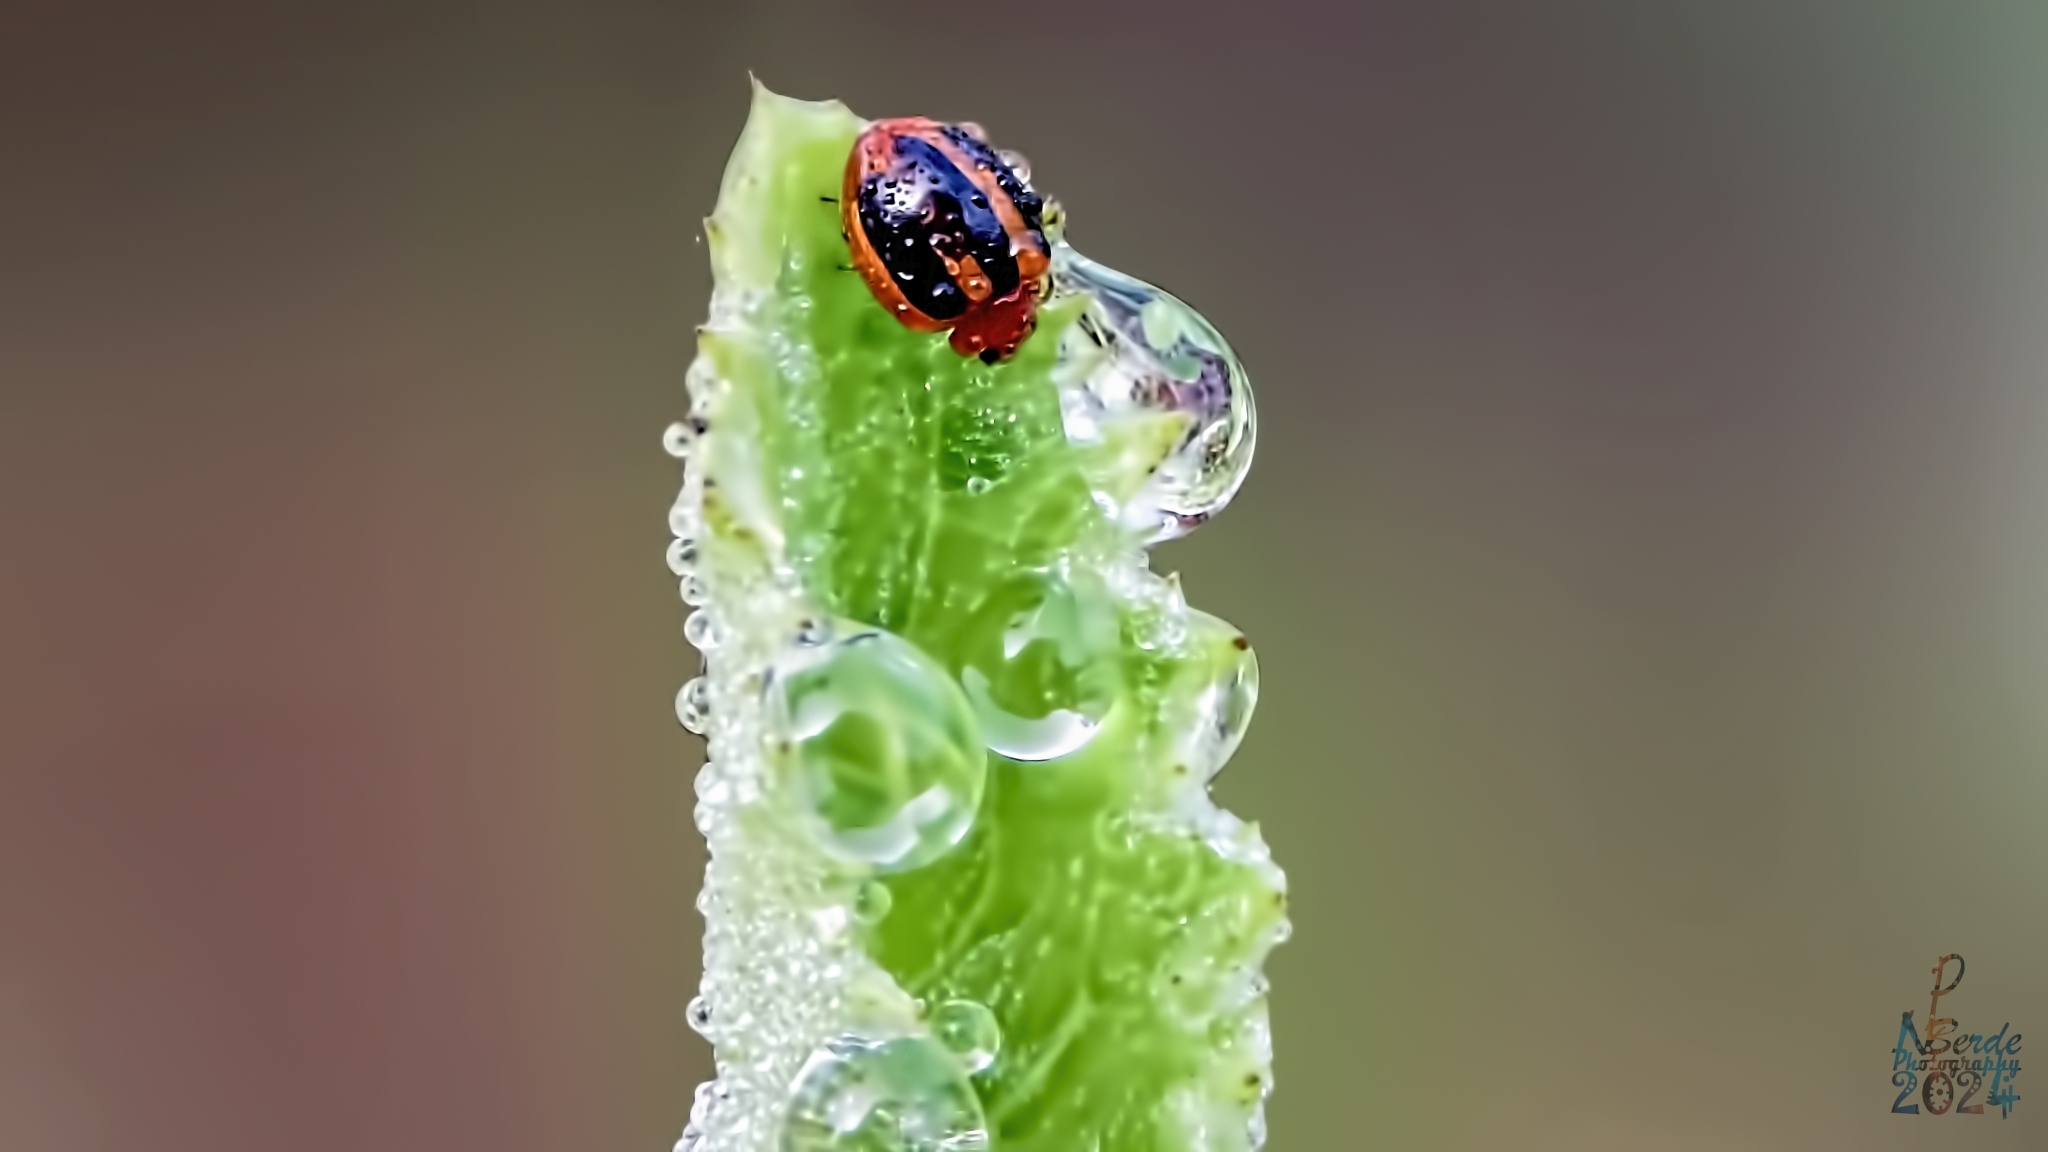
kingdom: Animalia
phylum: Arthropoda
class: Insecta
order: Coleoptera
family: Coccinellidae
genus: Brumoides
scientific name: Brumoides suturalis
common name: Threestriped lady beetle
